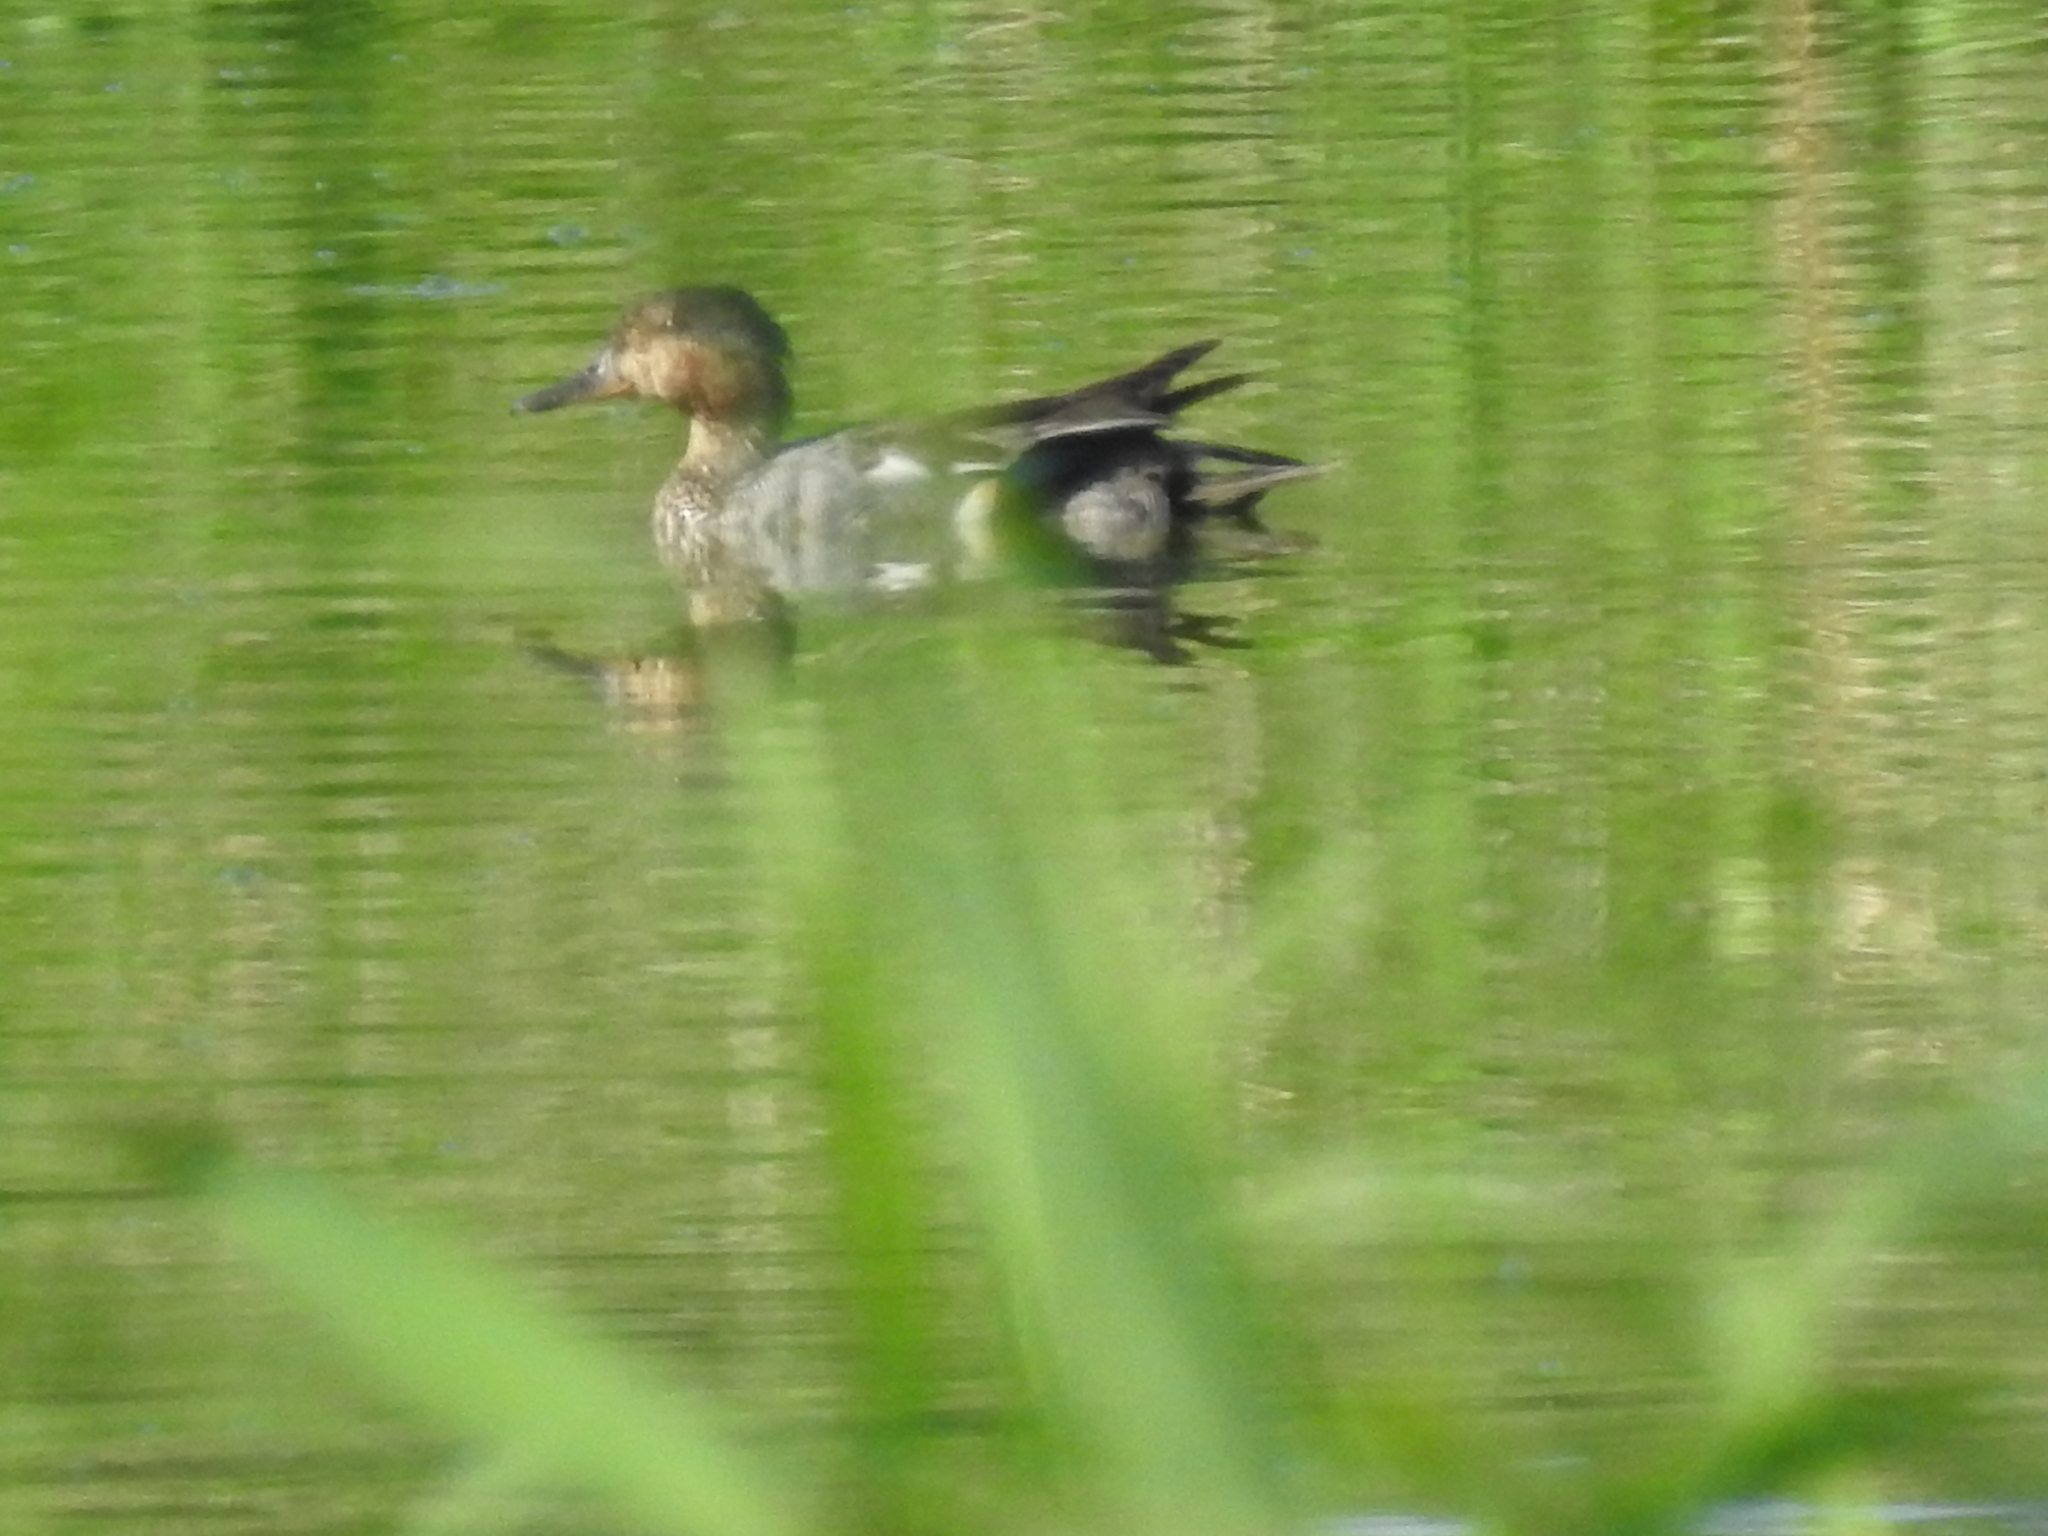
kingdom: Animalia
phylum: Chordata
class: Aves
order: Anseriformes
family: Anatidae
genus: Anas
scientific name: Anas crecca
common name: Eurasian teal
